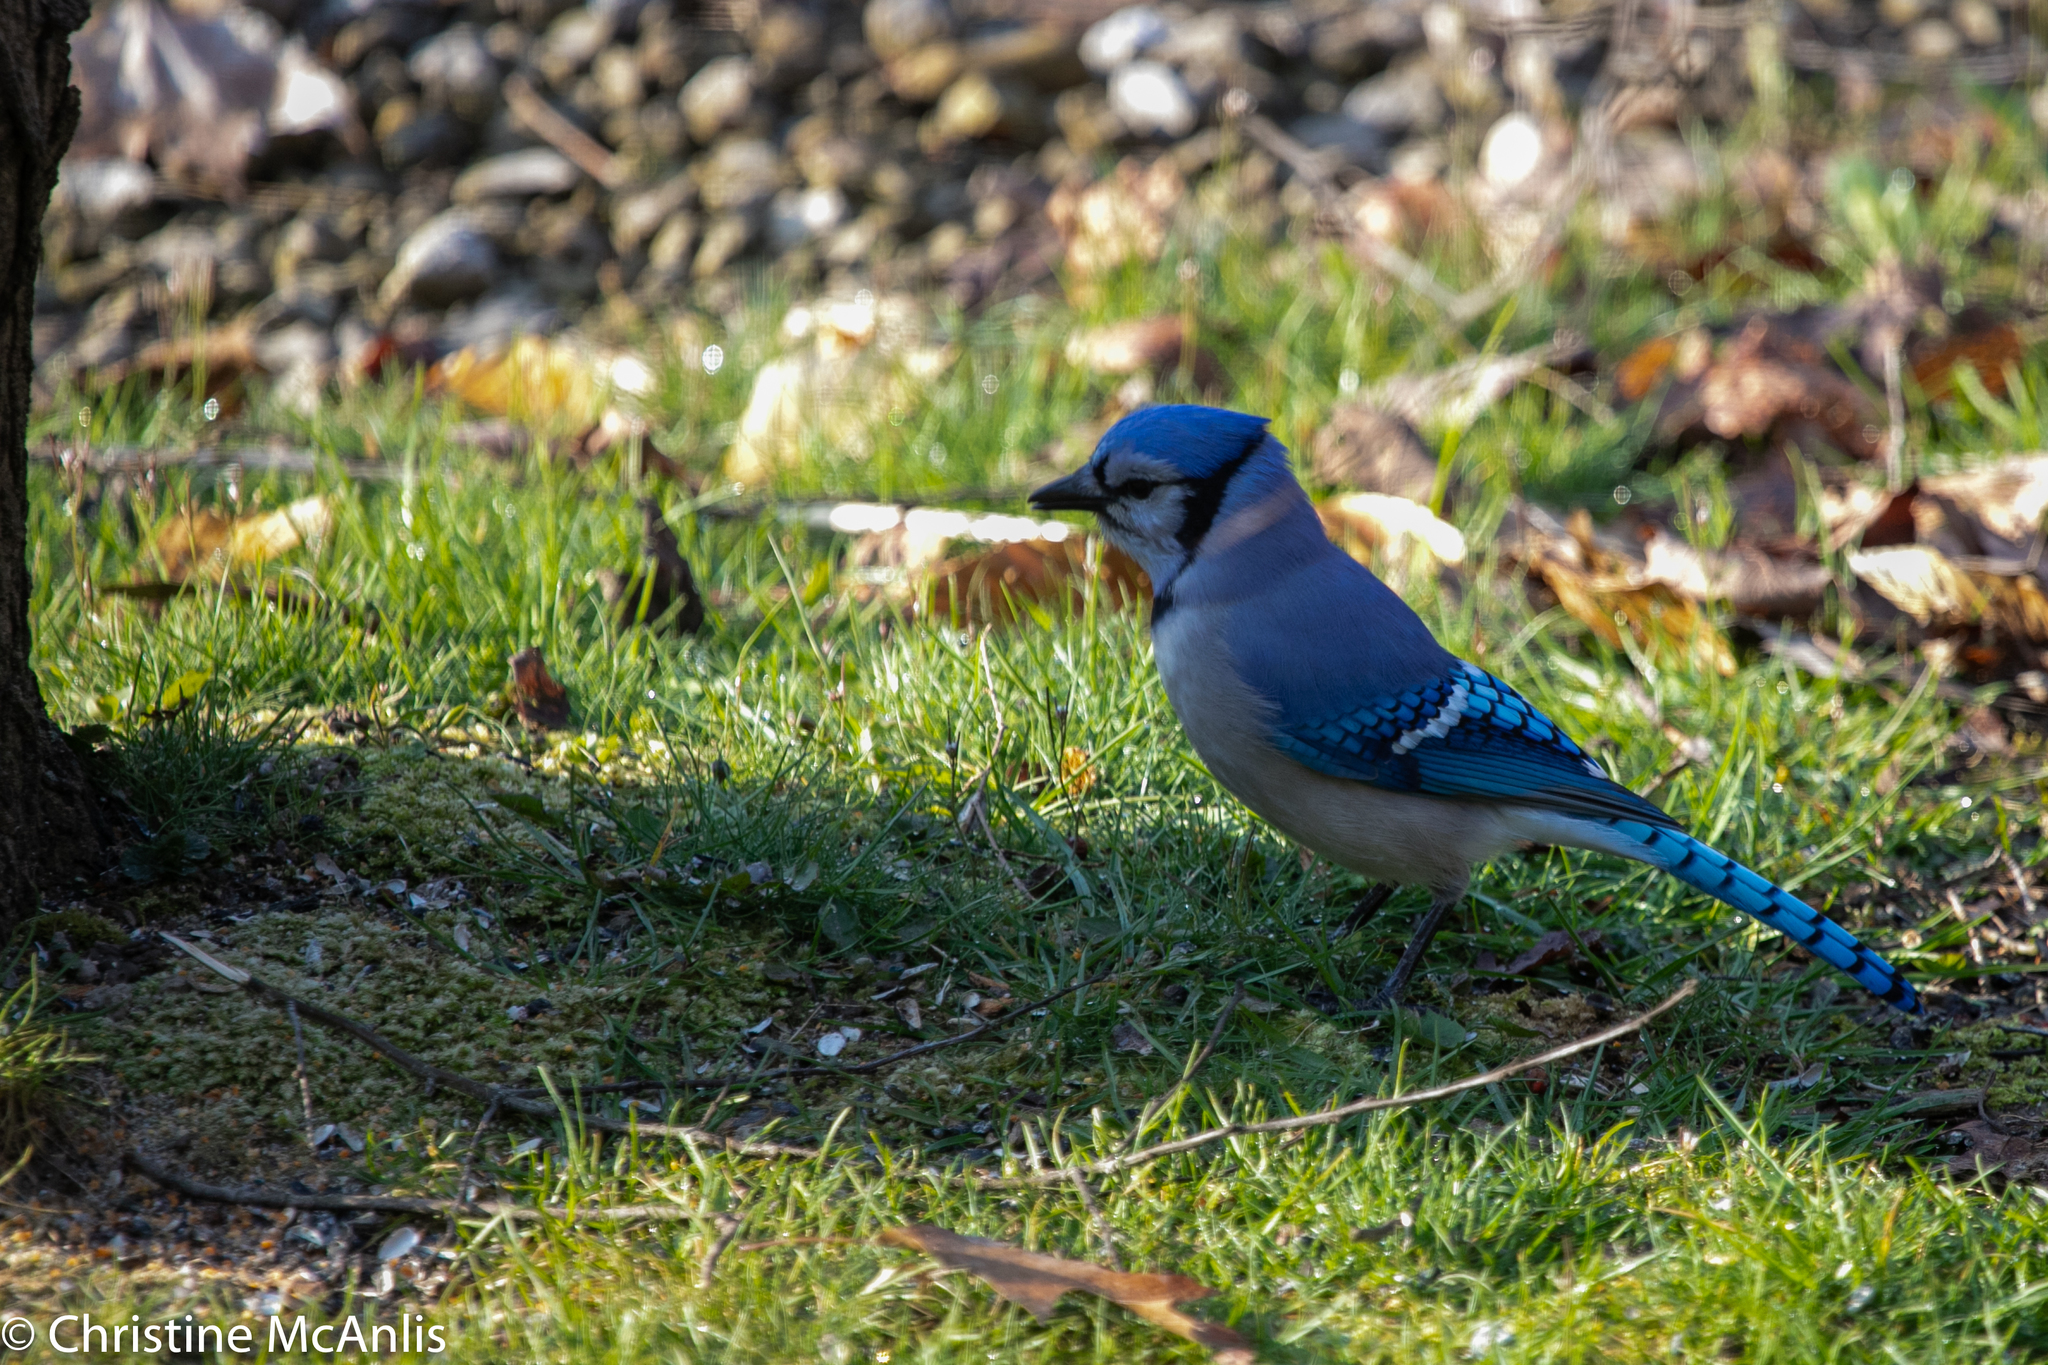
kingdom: Animalia
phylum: Chordata
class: Aves
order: Passeriformes
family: Corvidae
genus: Cyanocitta
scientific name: Cyanocitta cristata
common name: Blue jay
